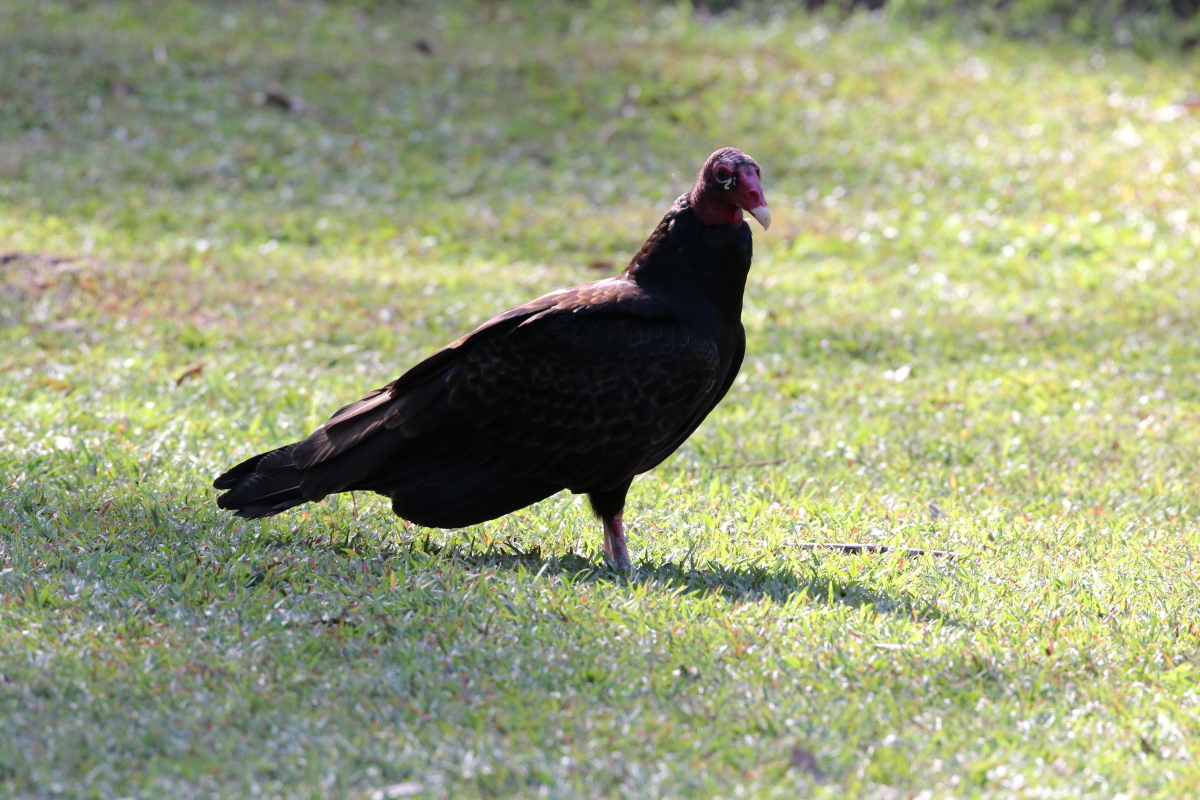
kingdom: Animalia
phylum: Chordata
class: Aves
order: Accipitriformes
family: Cathartidae
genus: Cathartes
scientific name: Cathartes aura
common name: Turkey vulture
